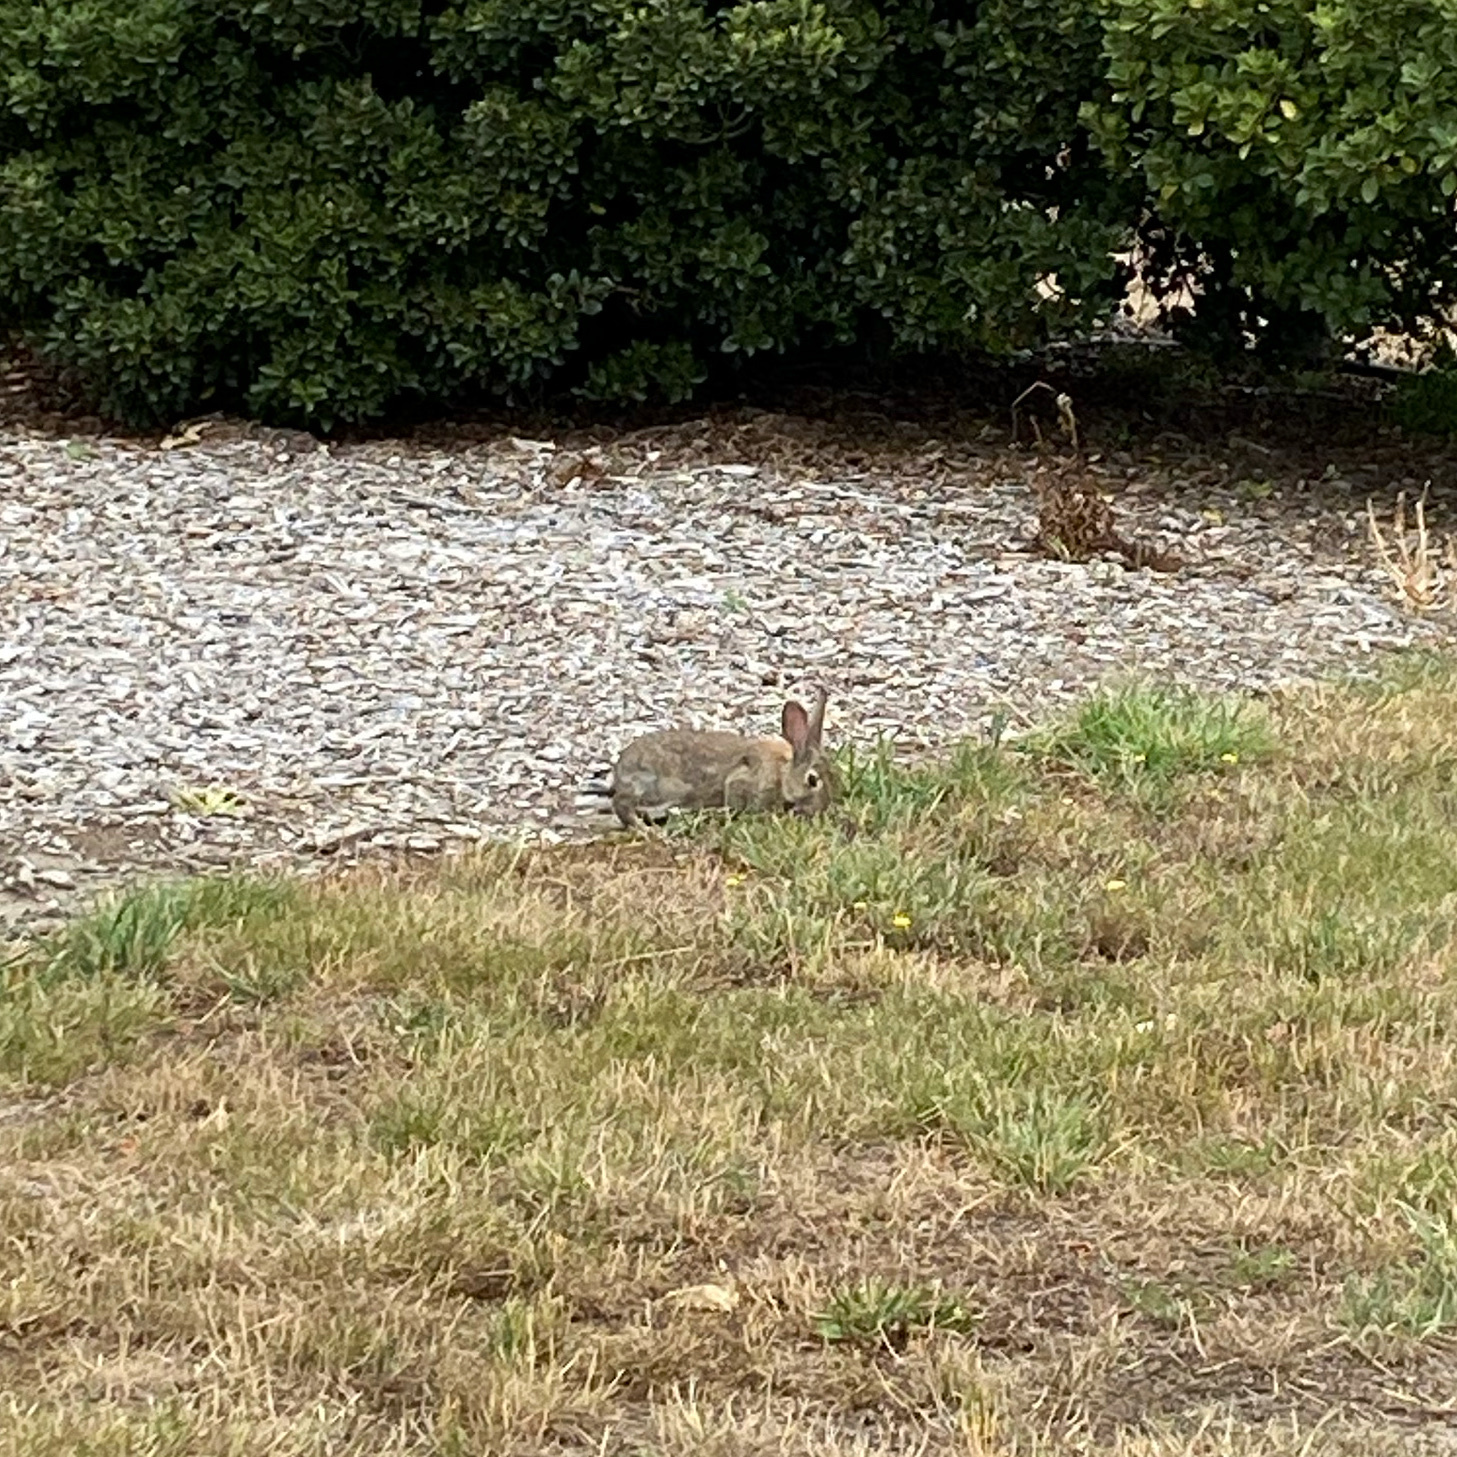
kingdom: Animalia
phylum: Chordata
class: Mammalia
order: Lagomorpha
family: Leporidae
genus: Oryctolagus
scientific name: Oryctolagus cuniculus
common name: European rabbit
